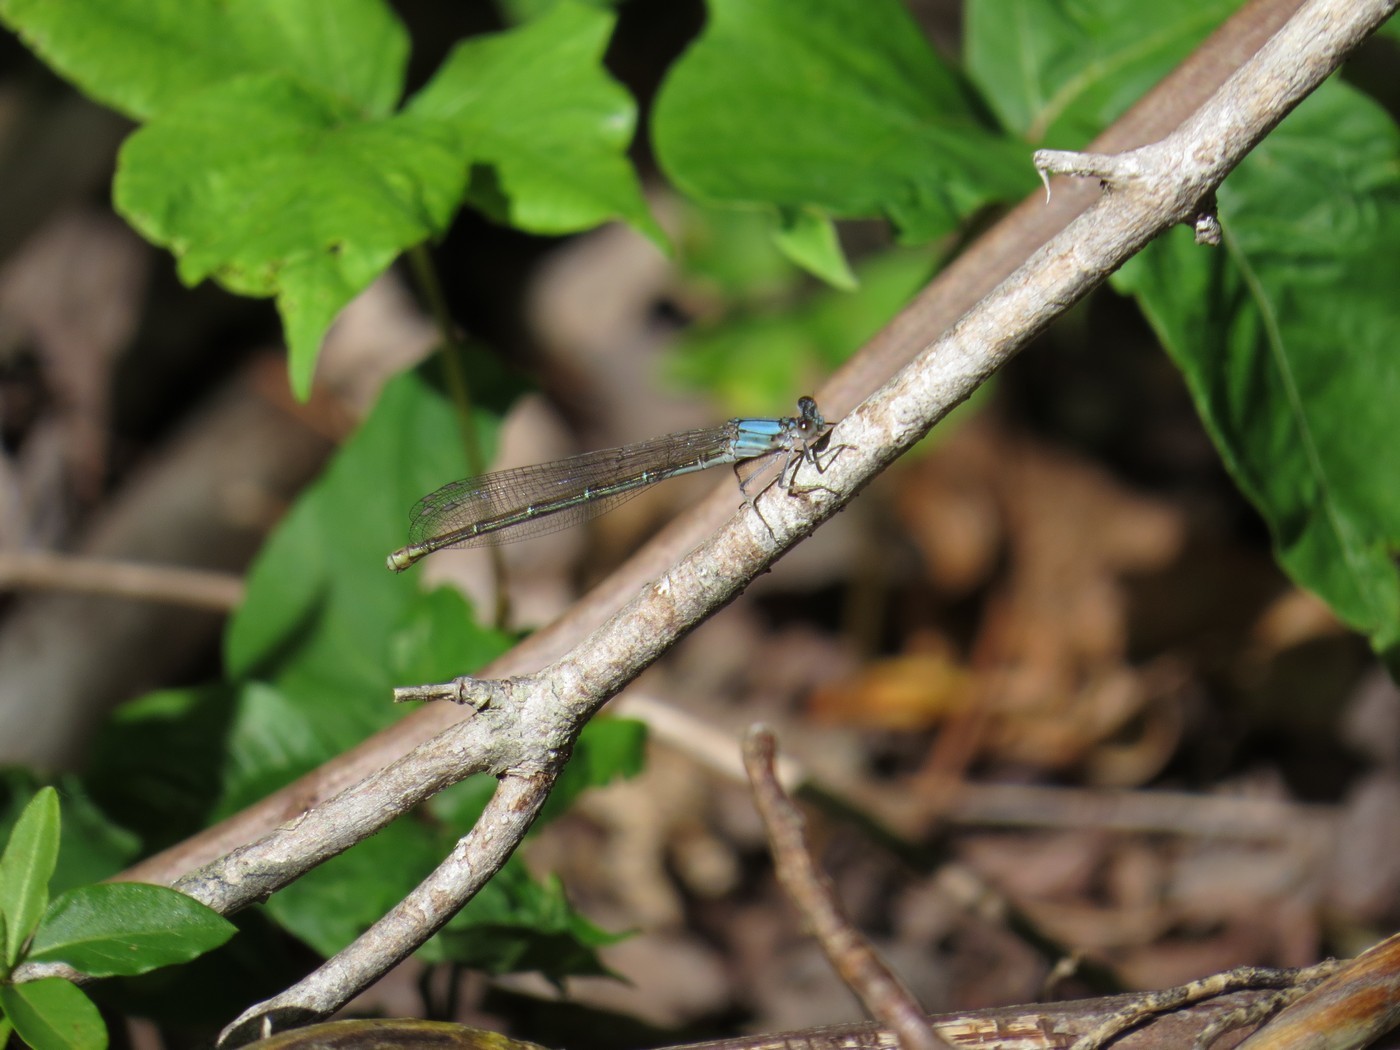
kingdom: Animalia
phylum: Arthropoda
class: Insecta
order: Odonata
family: Coenagrionidae
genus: Argia
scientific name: Argia moesta
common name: Powdered dancer
